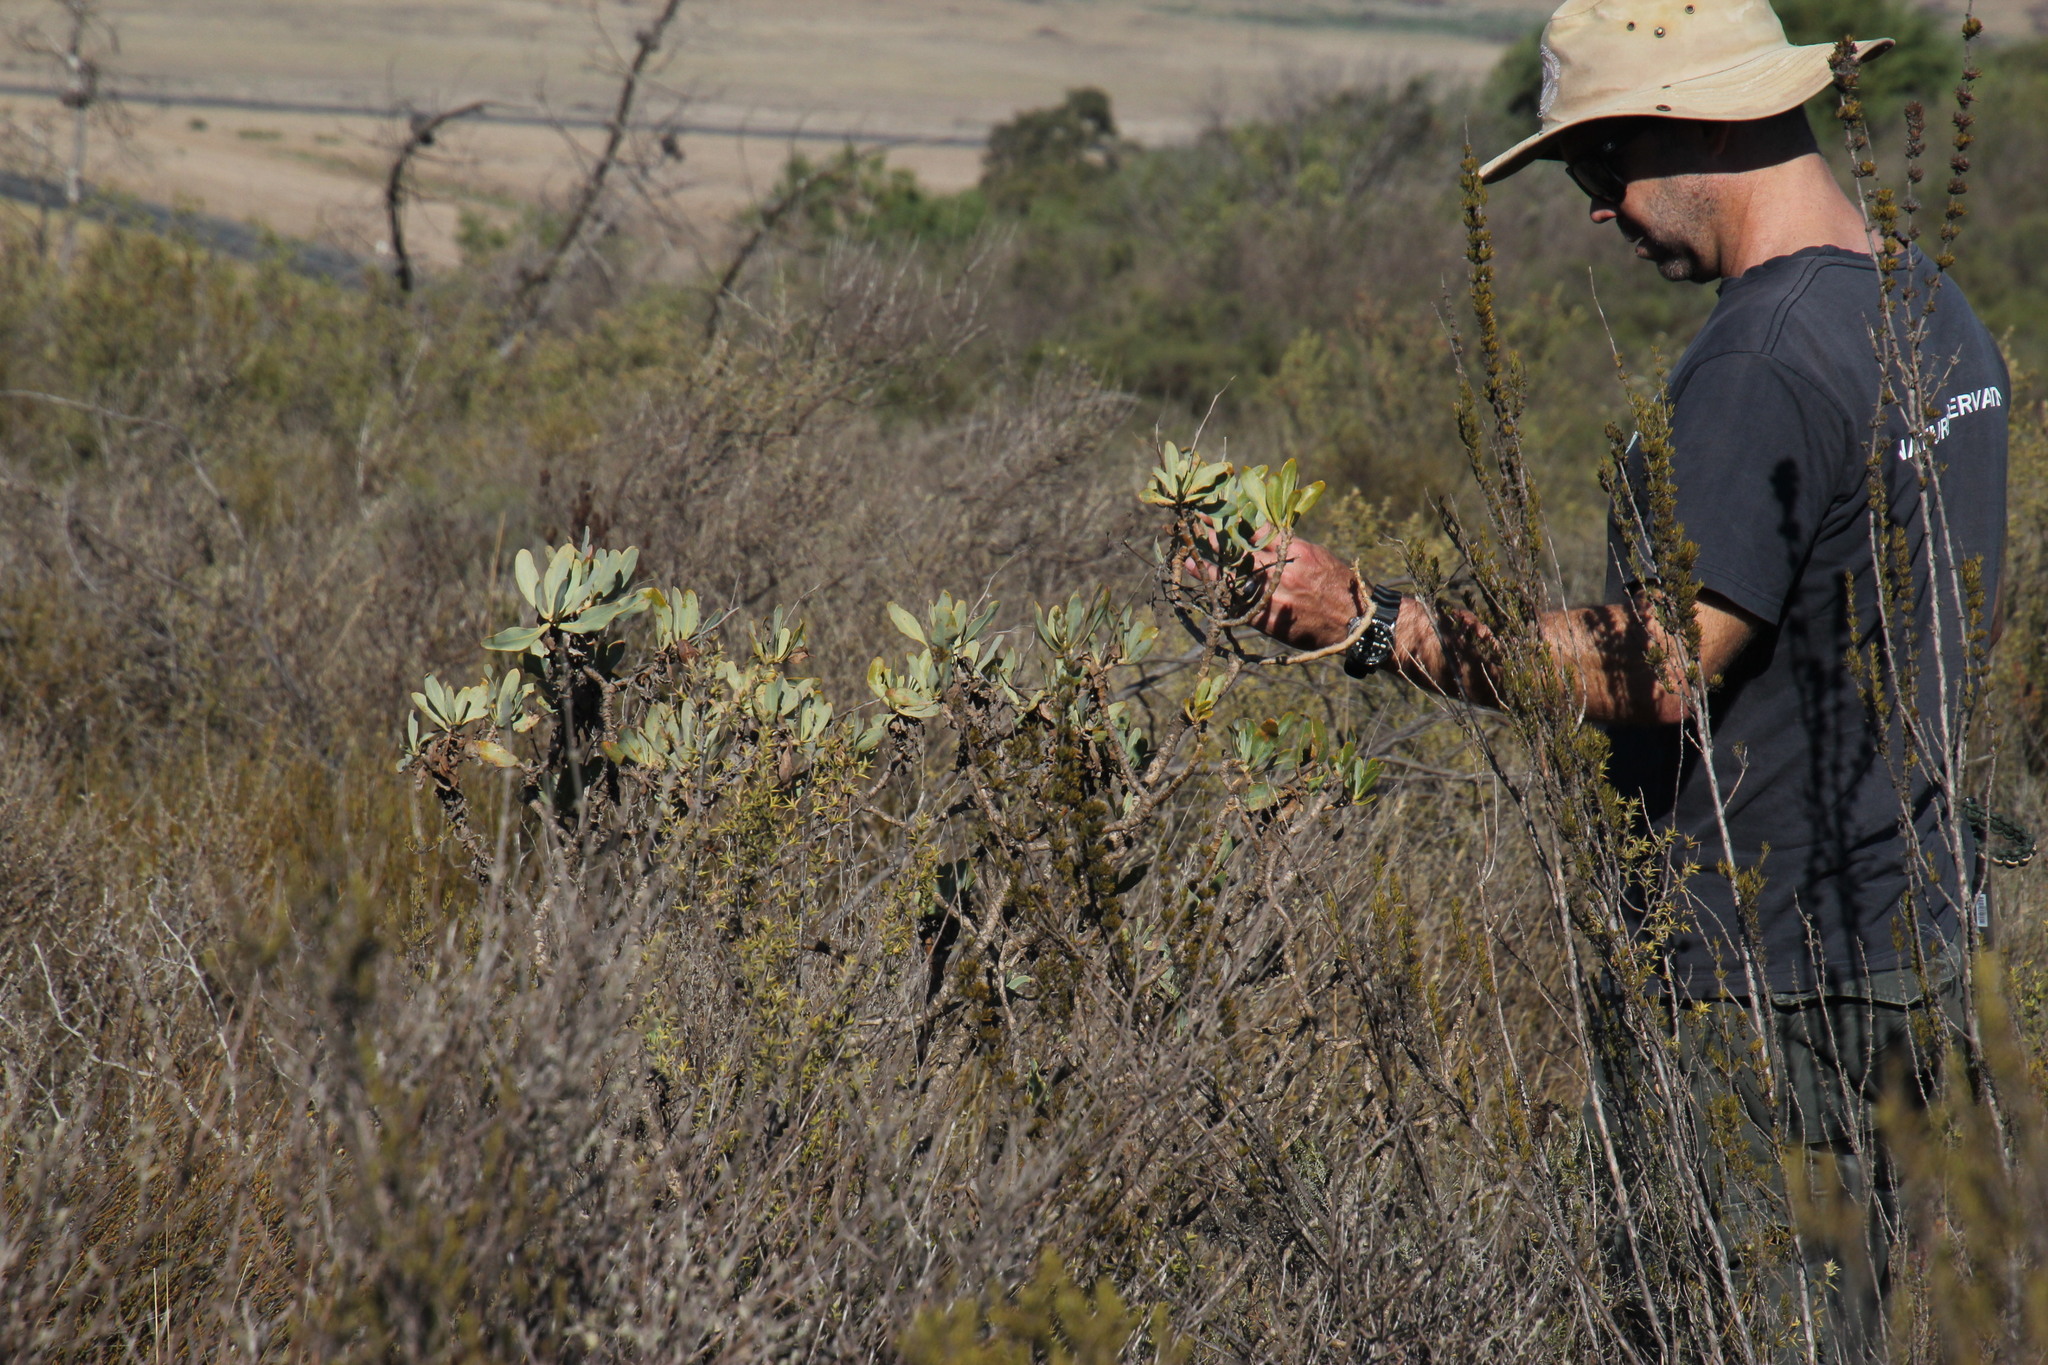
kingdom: Plantae
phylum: Tracheophyta
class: Magnoliopsida
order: Asterales
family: Asteraceae
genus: Othonna
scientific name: Othonna parviflora
